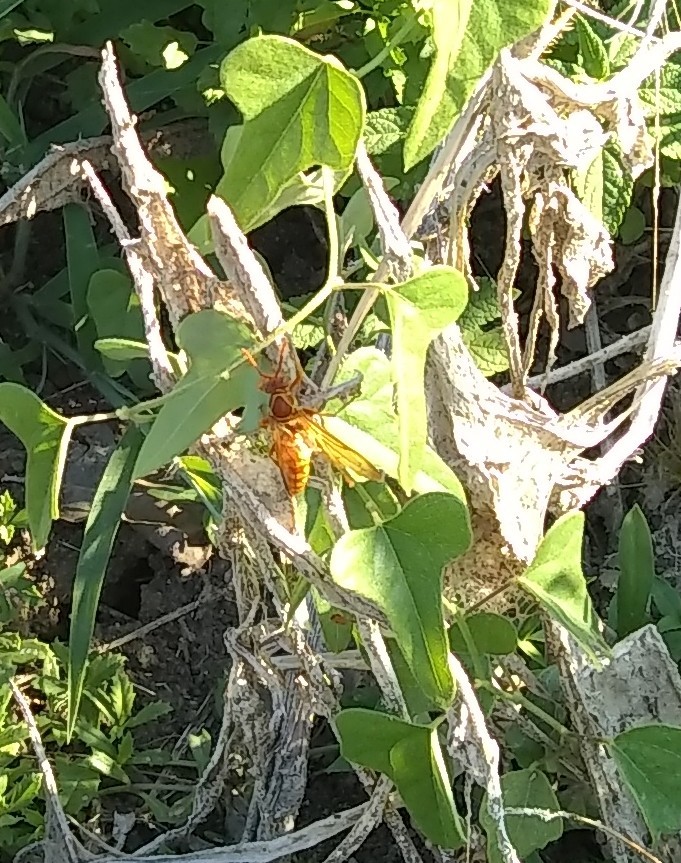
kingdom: Animalia
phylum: Arthropoda
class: Insecta
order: Hymenoptera
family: Eumenidae
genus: Polistes
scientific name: Polistes apachus
